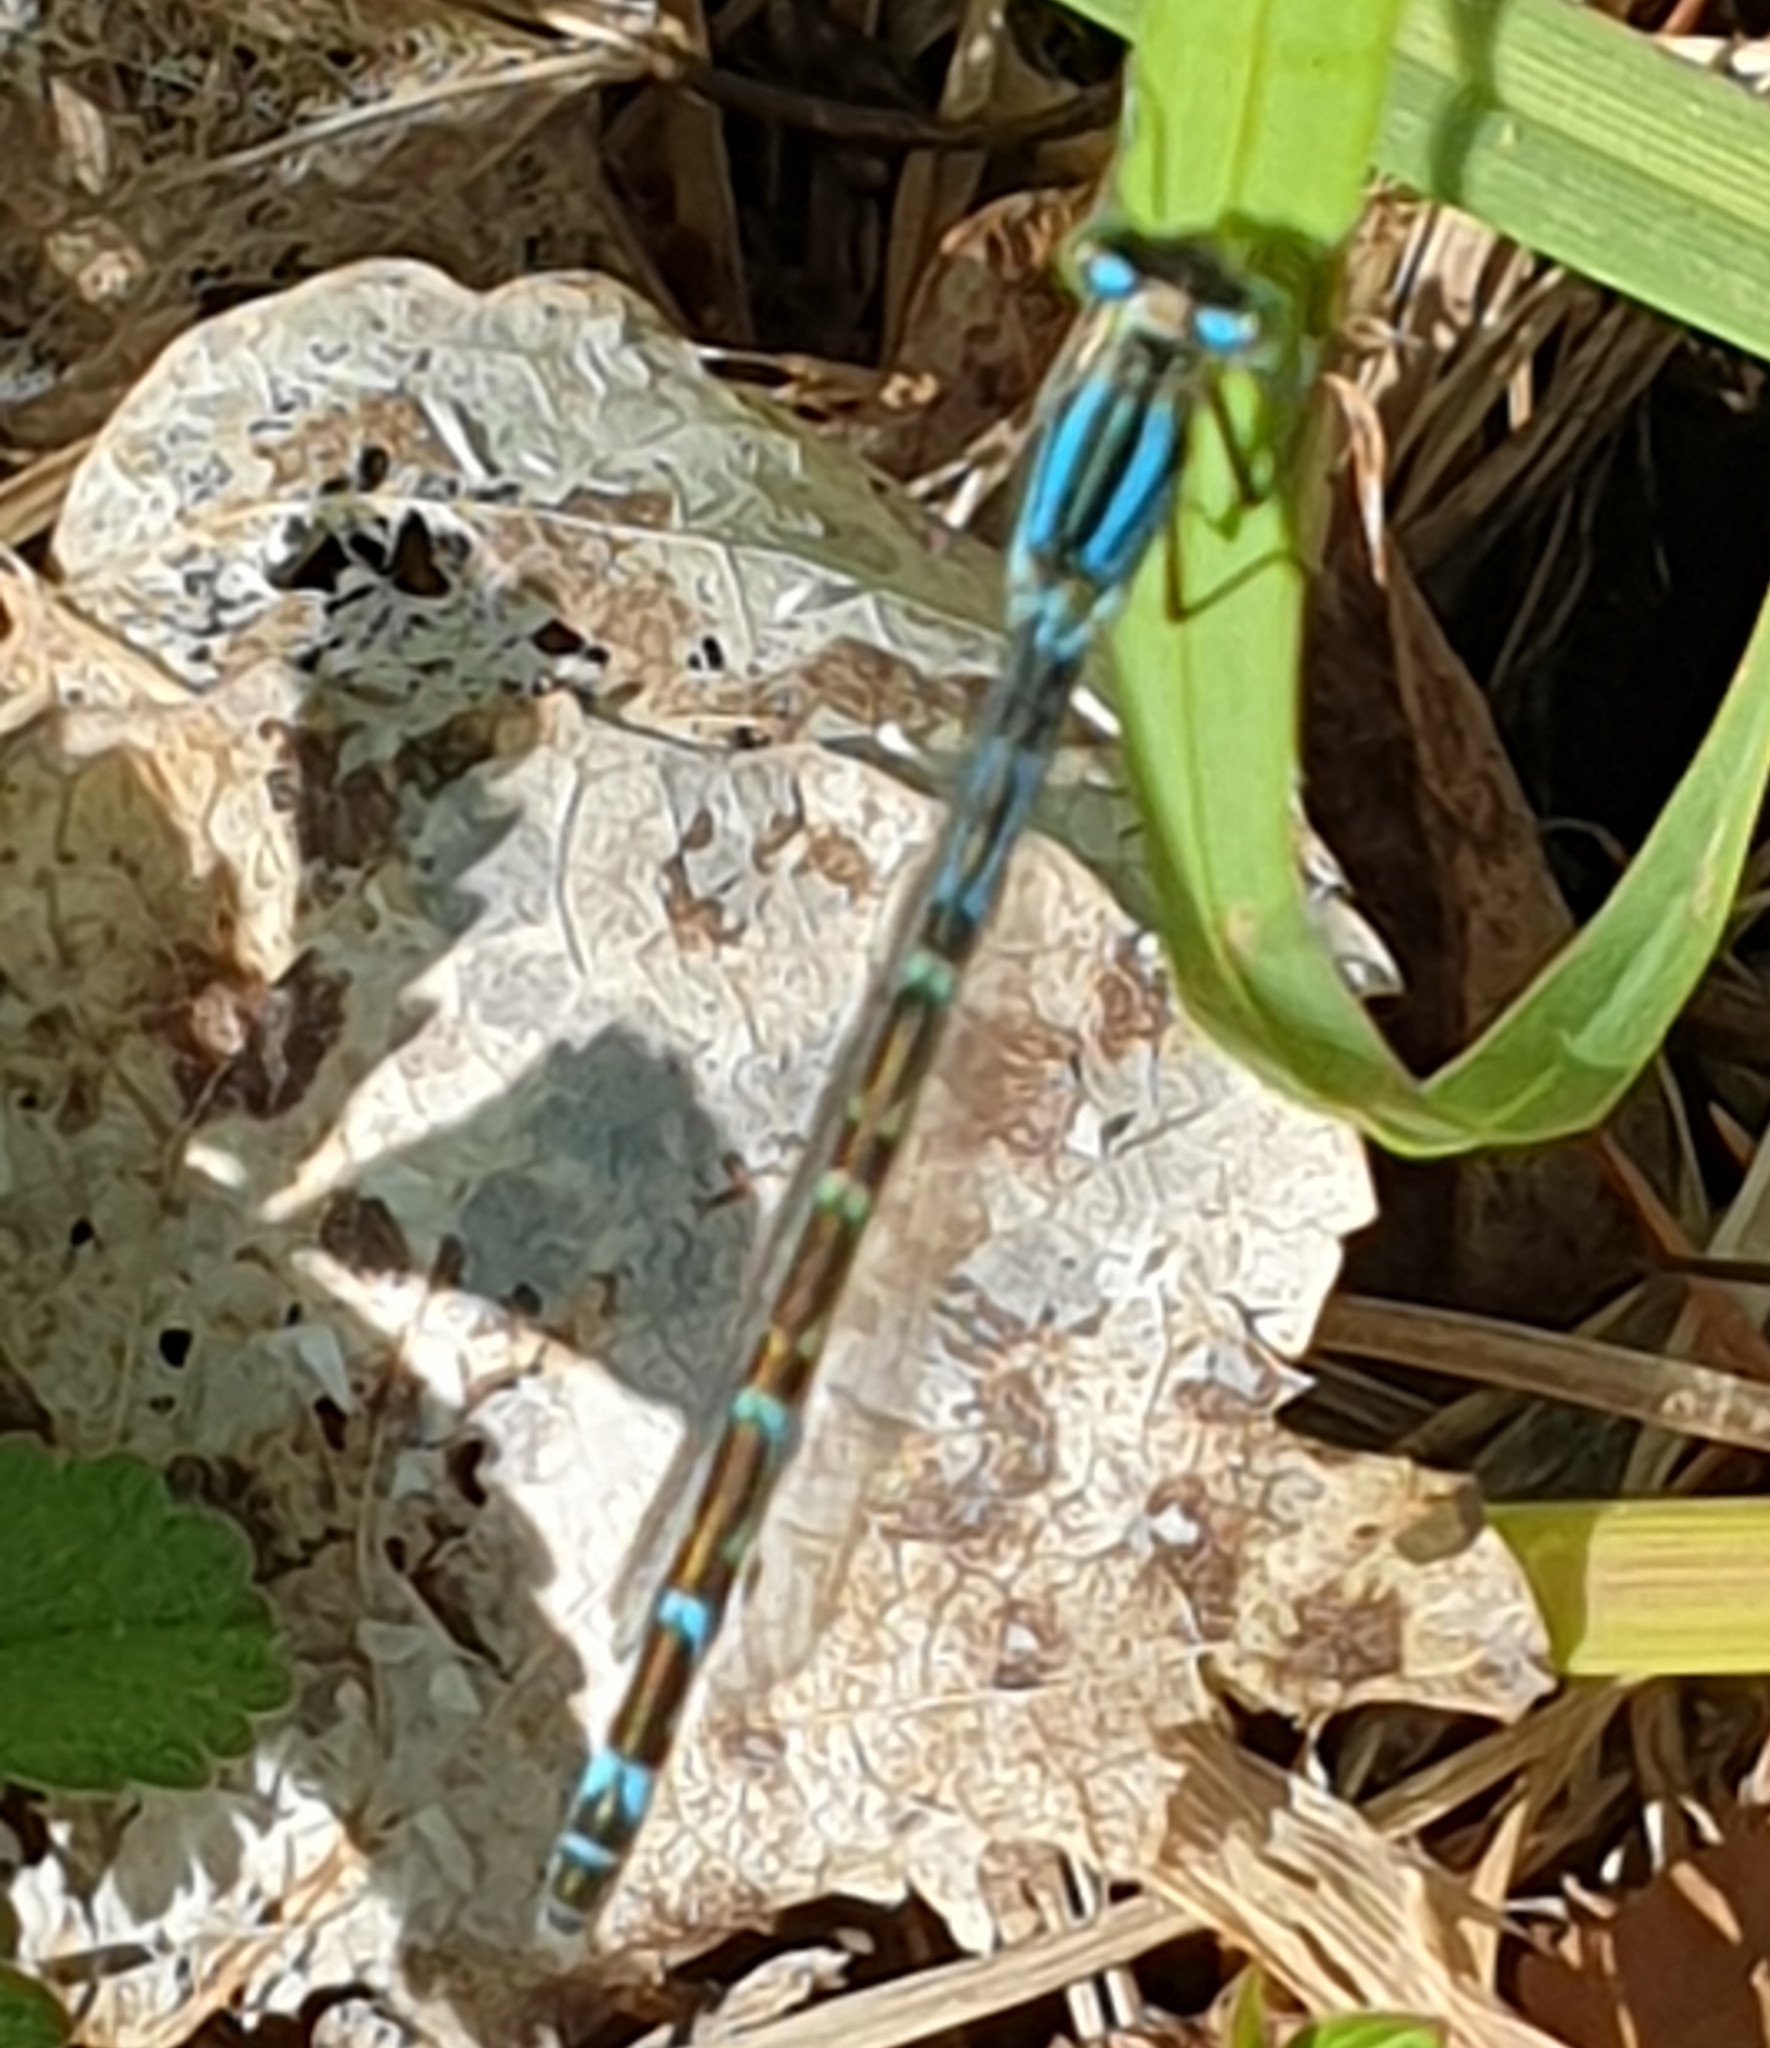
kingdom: Animalia
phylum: Arthropoda
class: Insecta
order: Odonata
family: Coenagrionidae
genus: Enallagma
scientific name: Enallagma cyathigerum
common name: Common blue damselfly
